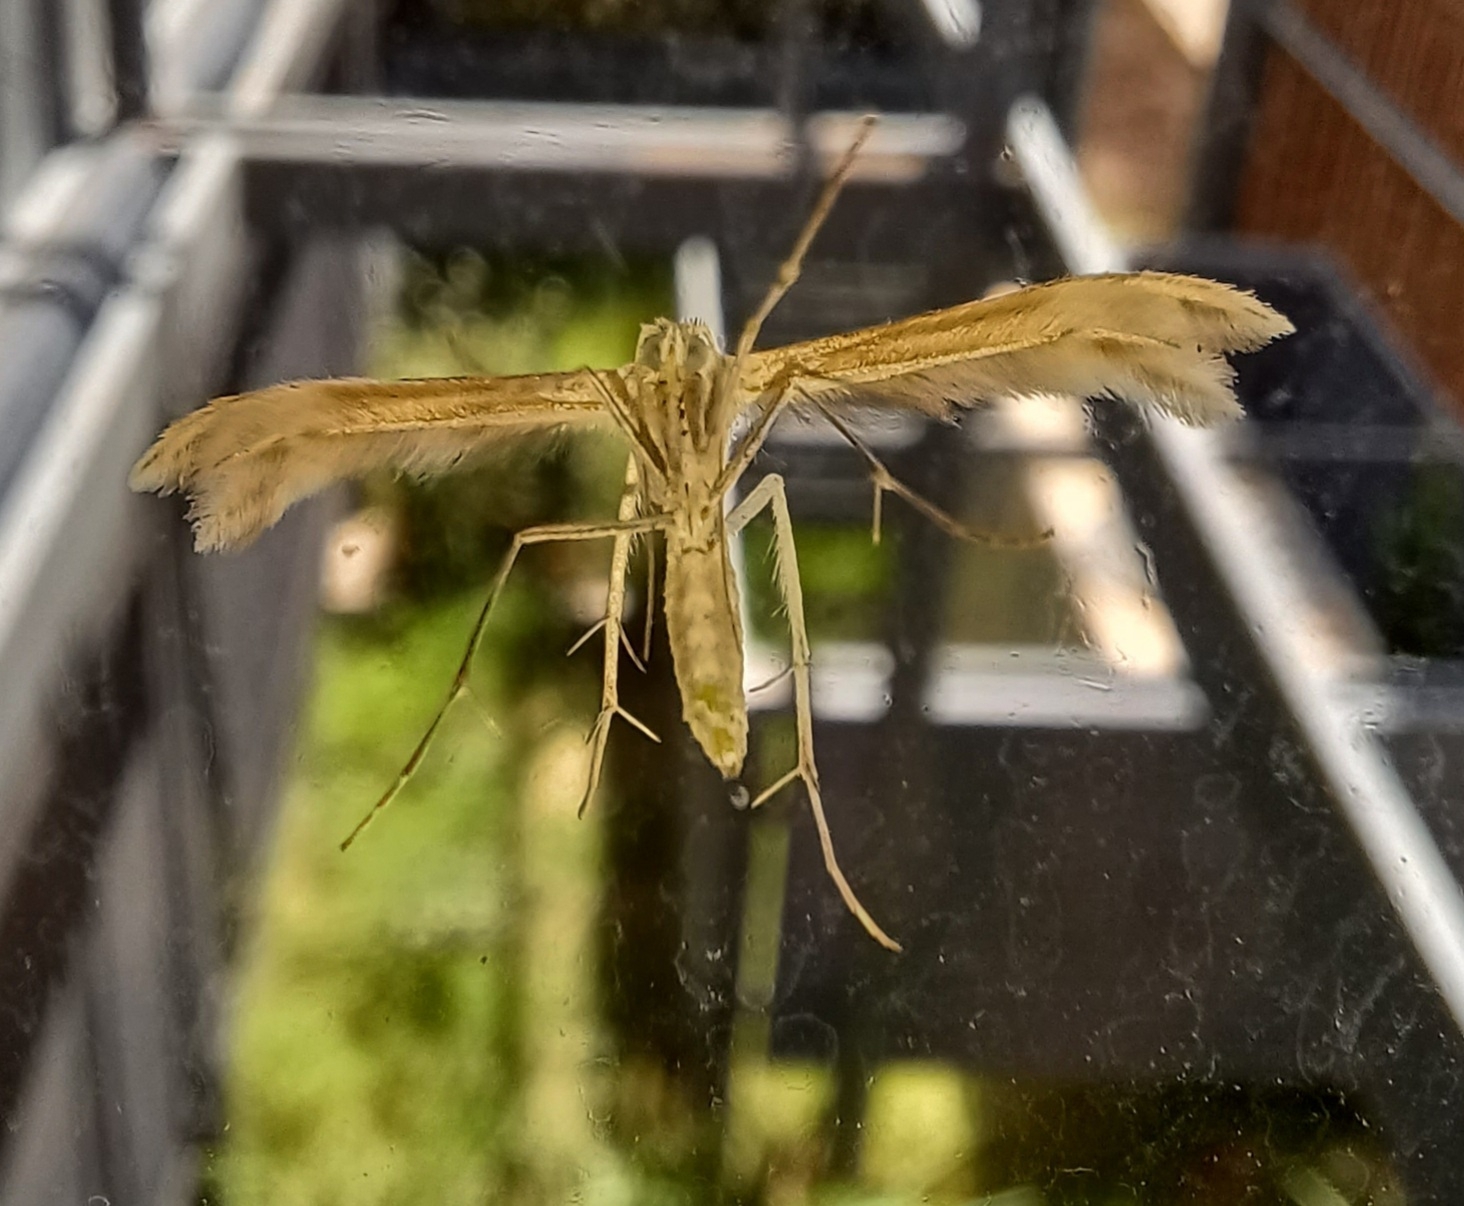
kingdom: Animalia
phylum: Arthropoda
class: Insecta
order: Lepidoptera
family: Pterophoridae
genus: Wheeleria
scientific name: Wheeleria spilodactylus
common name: Horehound plume
